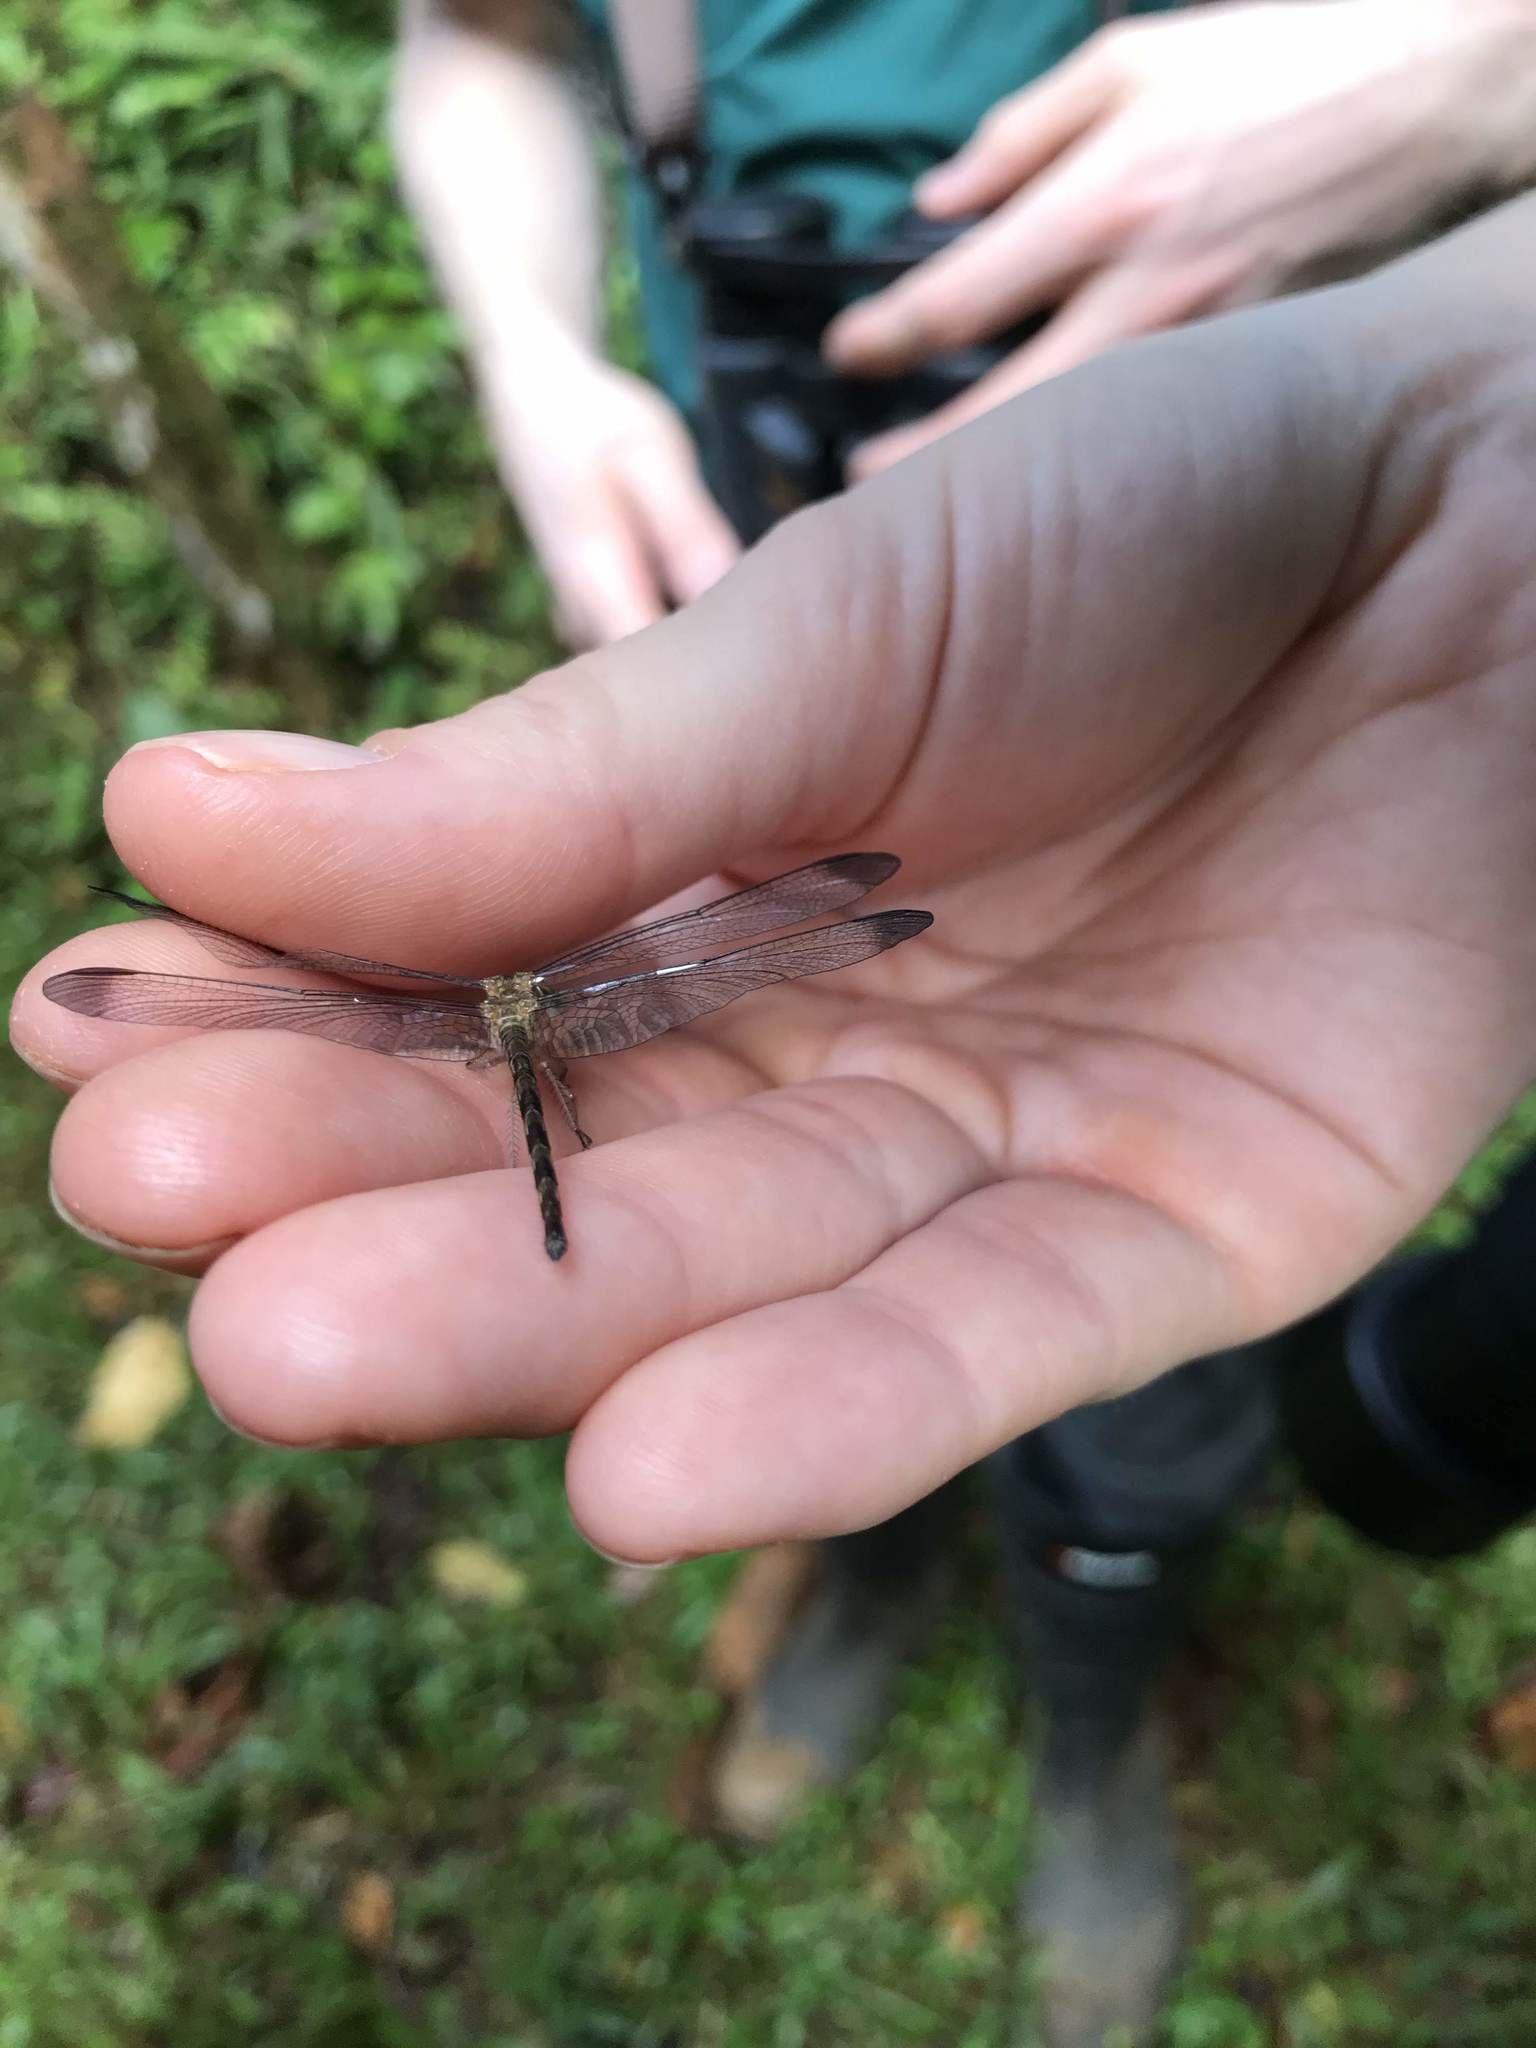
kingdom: Animalia
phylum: Arthropoda
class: Insecta
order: Odonata
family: Libellulidae
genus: Uracis
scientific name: Uracis imbuta
